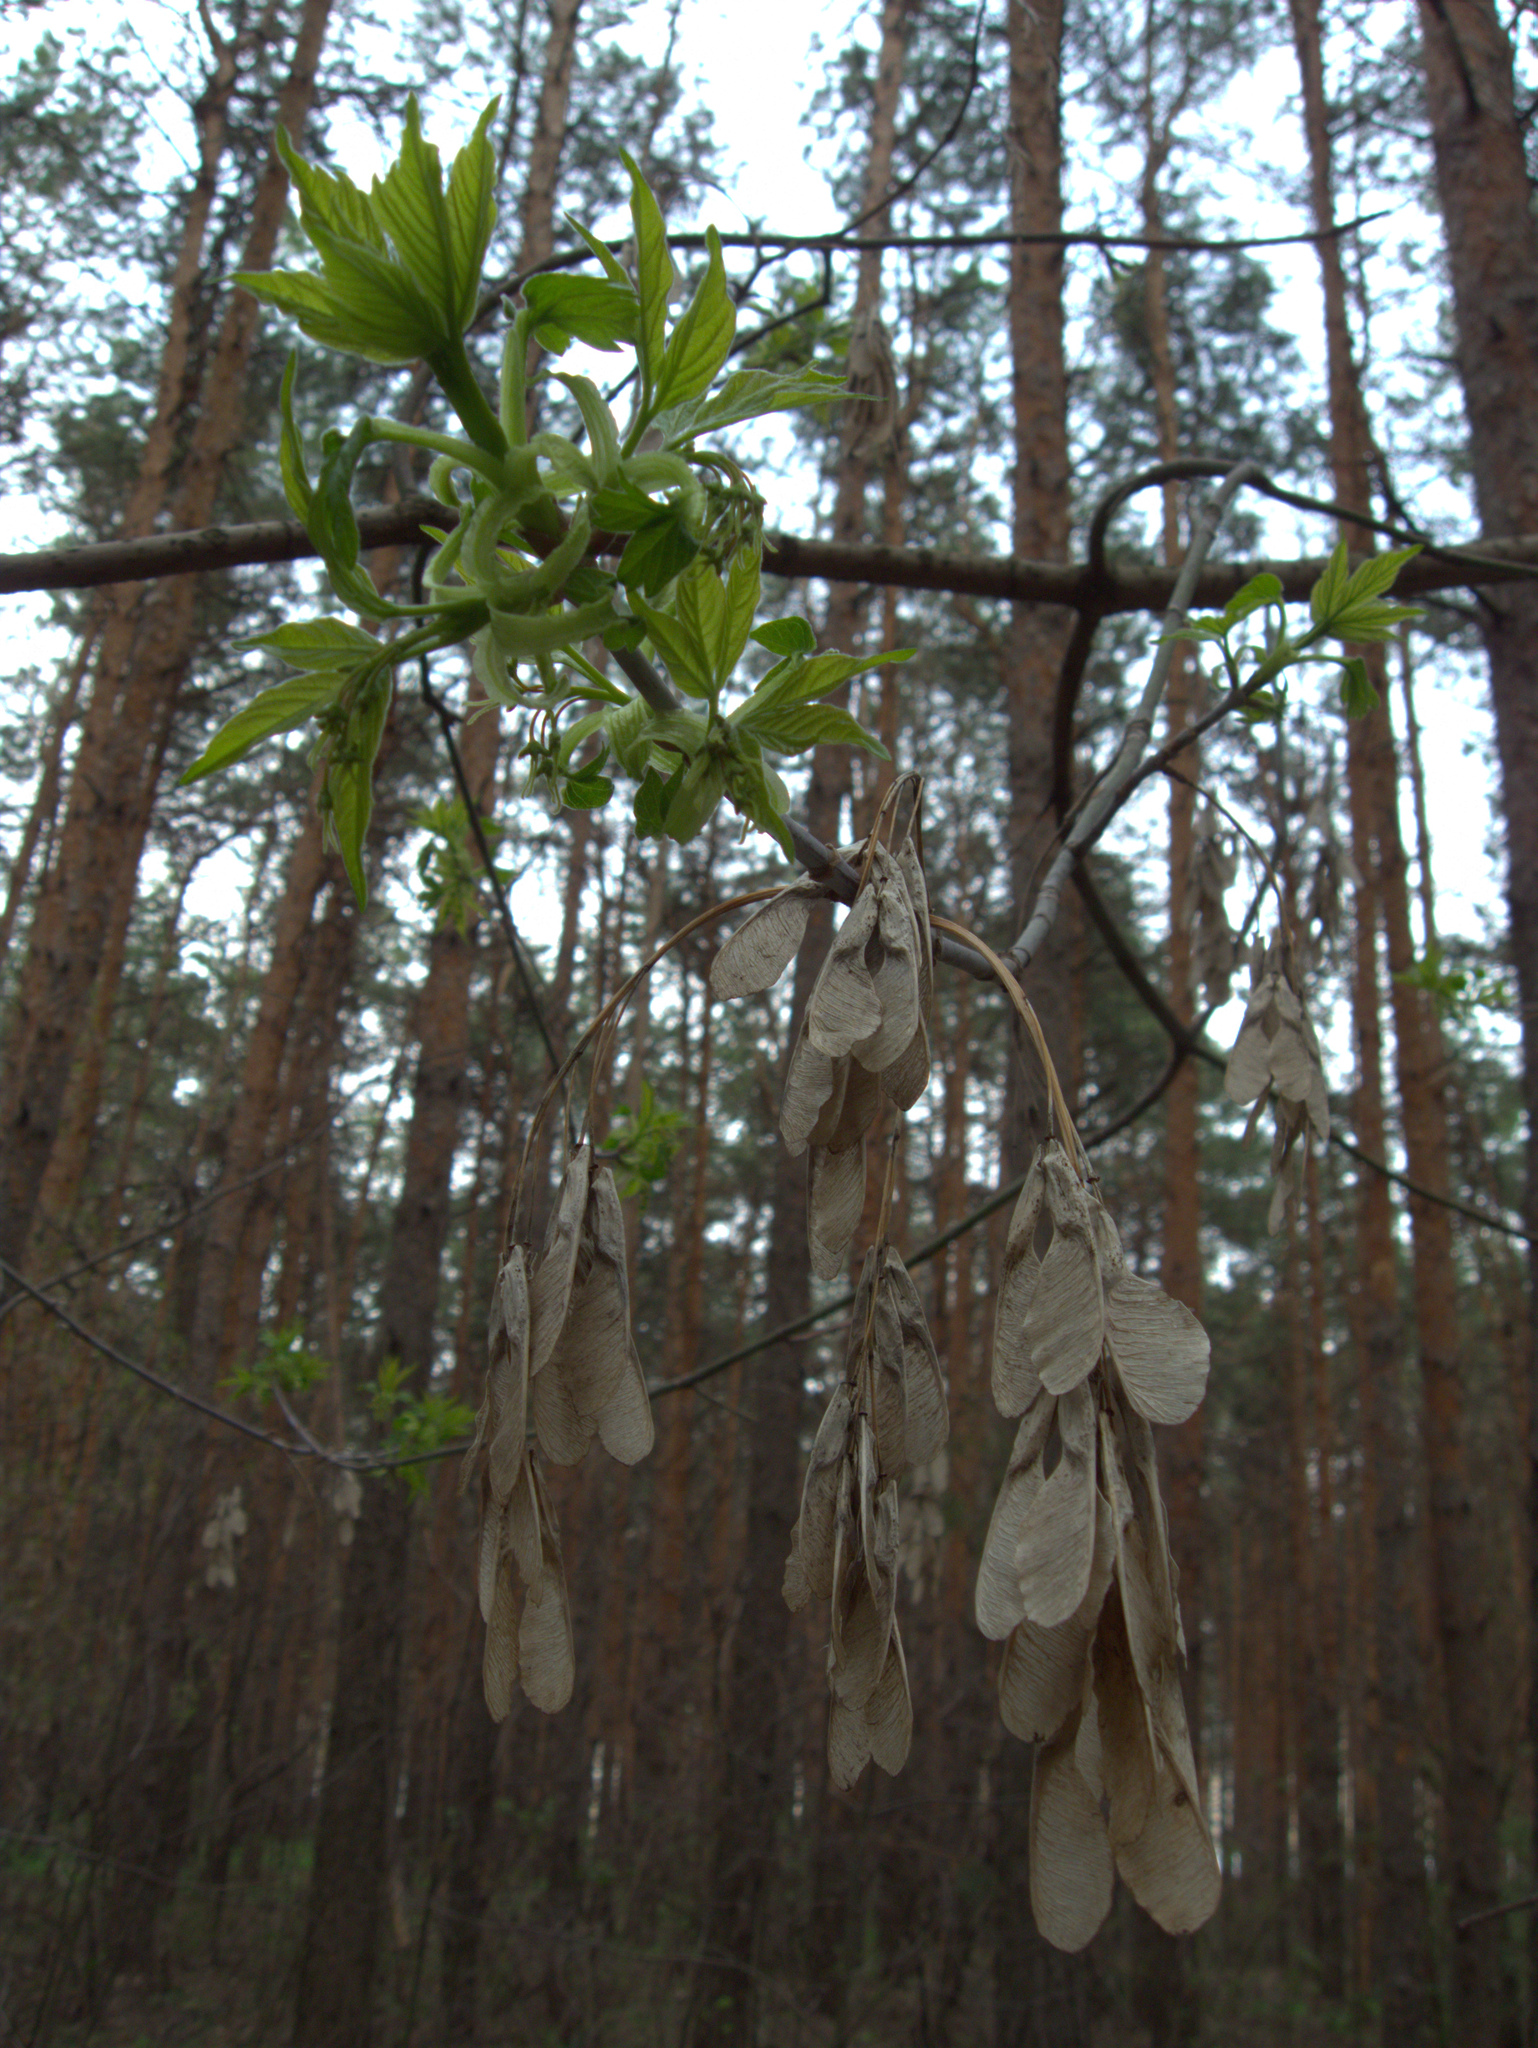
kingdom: Plantae
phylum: Tracheophyta
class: Magnoliopsida
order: Sapindales
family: Sapindaceae
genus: Acer
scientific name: Acer negundo
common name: Ashleaf maple
